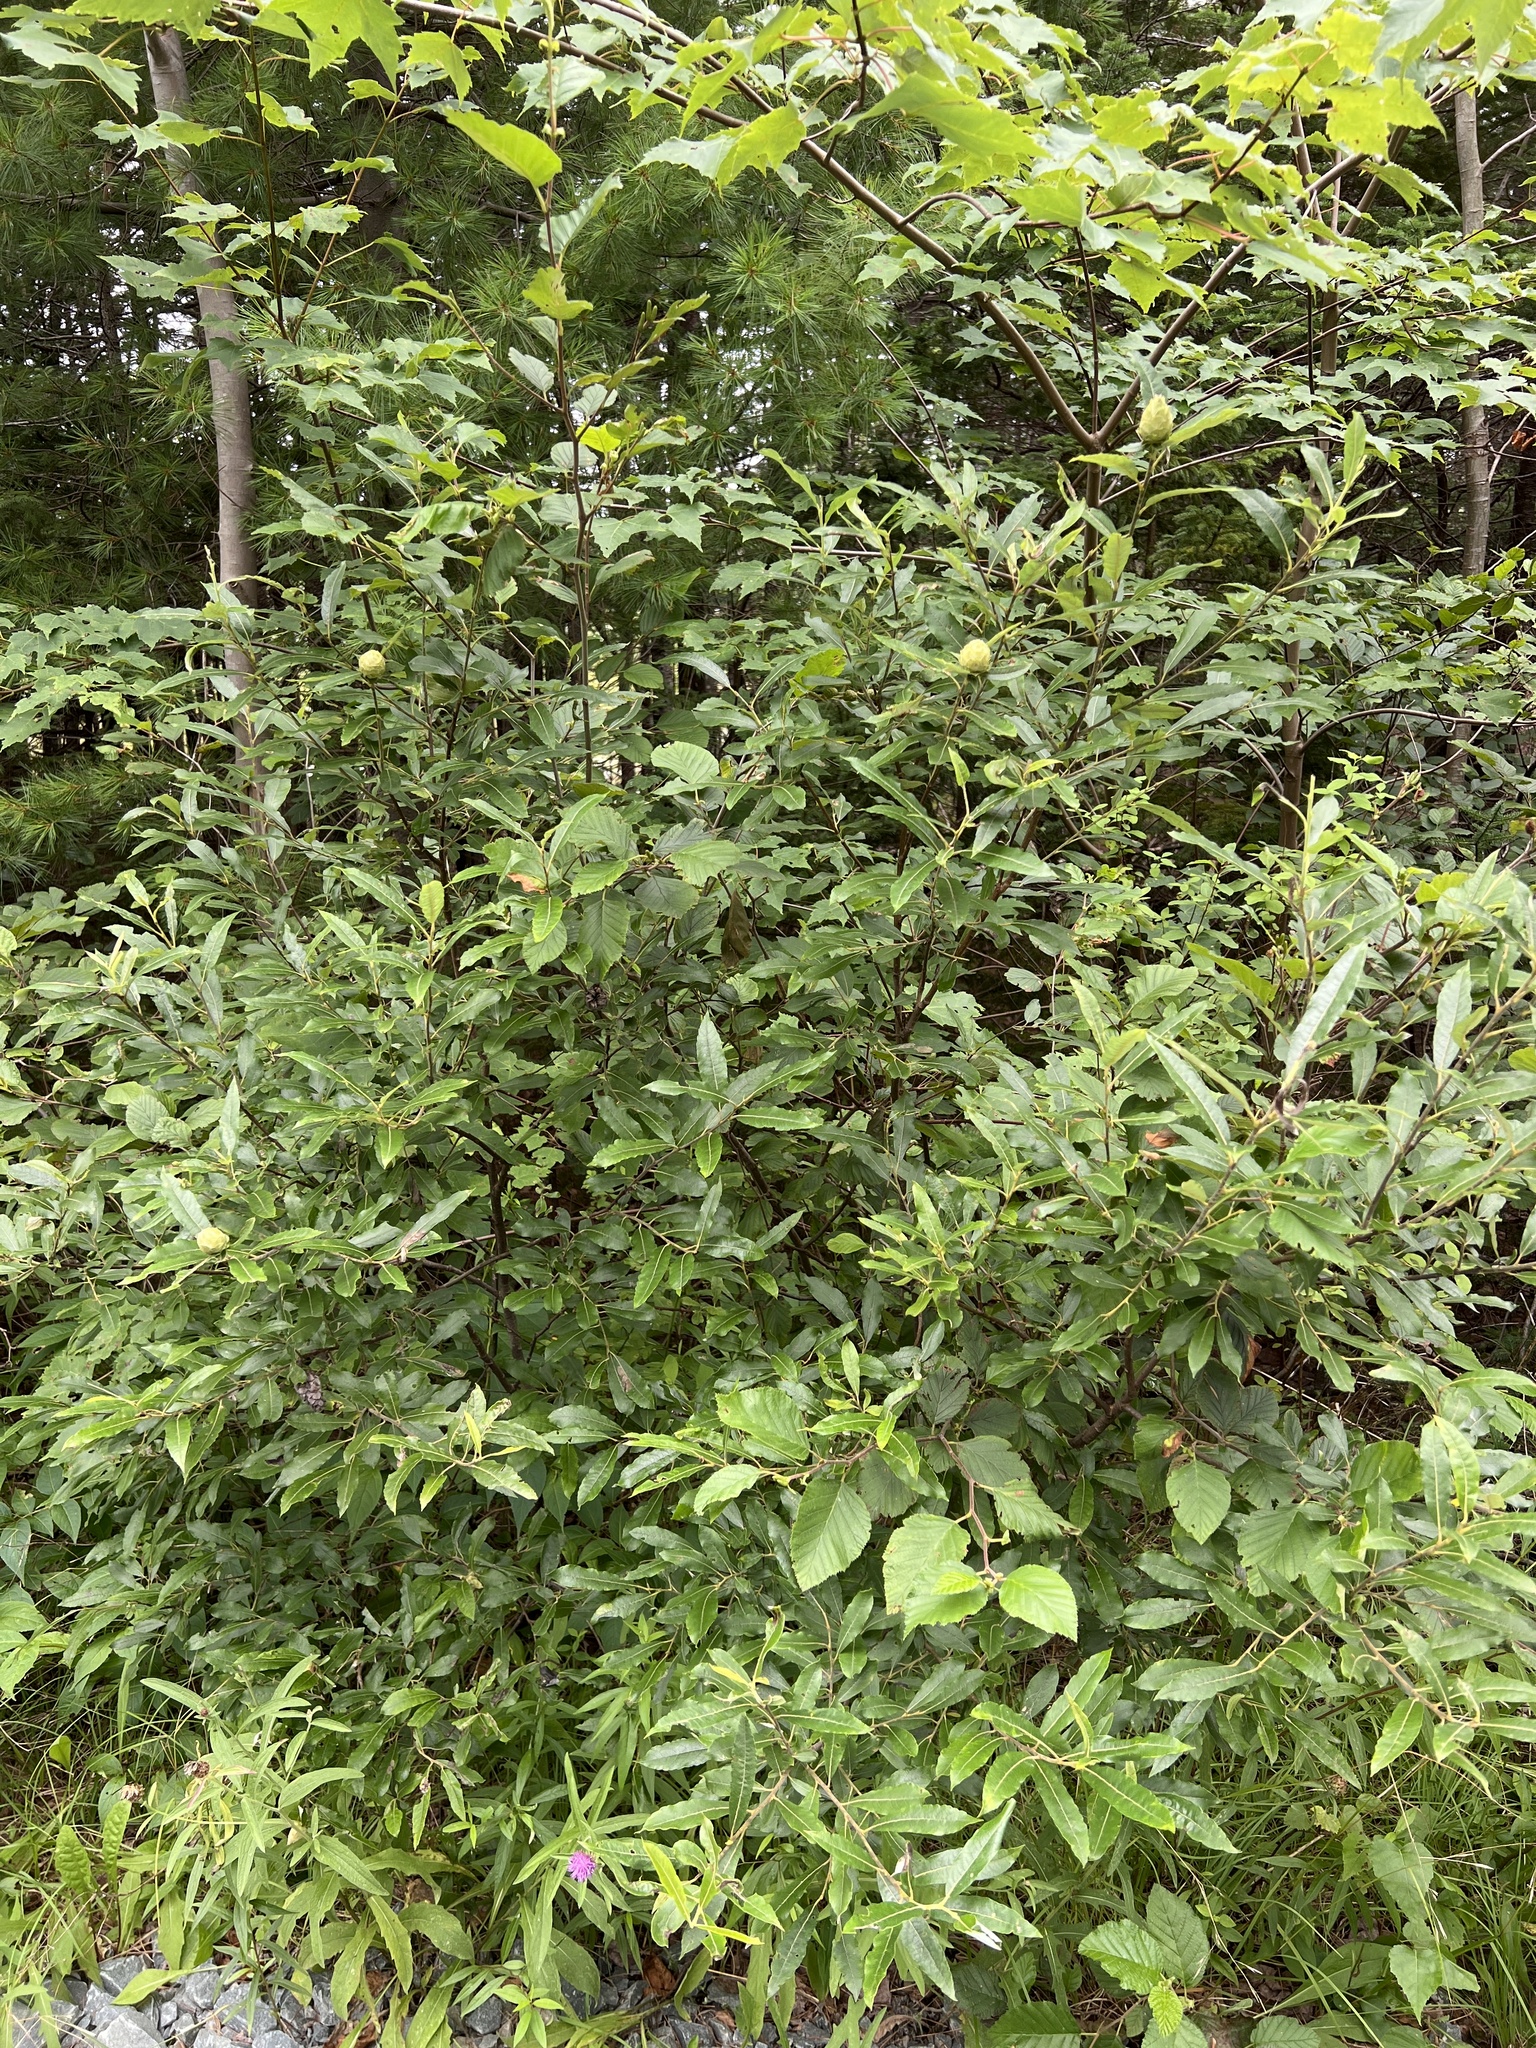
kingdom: Animalia
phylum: Arthropoda
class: Insecta
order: Diptera
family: Cecidomyiidae
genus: Rabdophaga
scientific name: Rabdophaga strobiloides
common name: Willow pinecone gall midge
